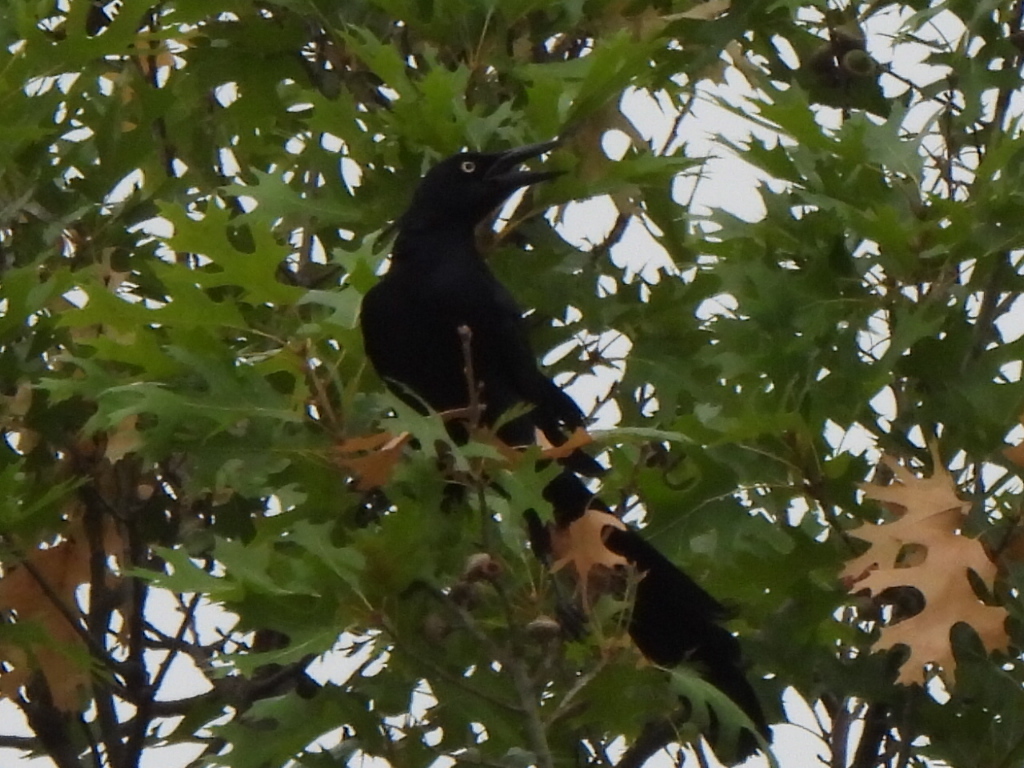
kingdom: Animalia
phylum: Chordata
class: Aves
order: Passeriformes
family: Icteridae
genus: Quiscalus
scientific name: Quiscalus mexicanus
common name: Great-tailed grackle
